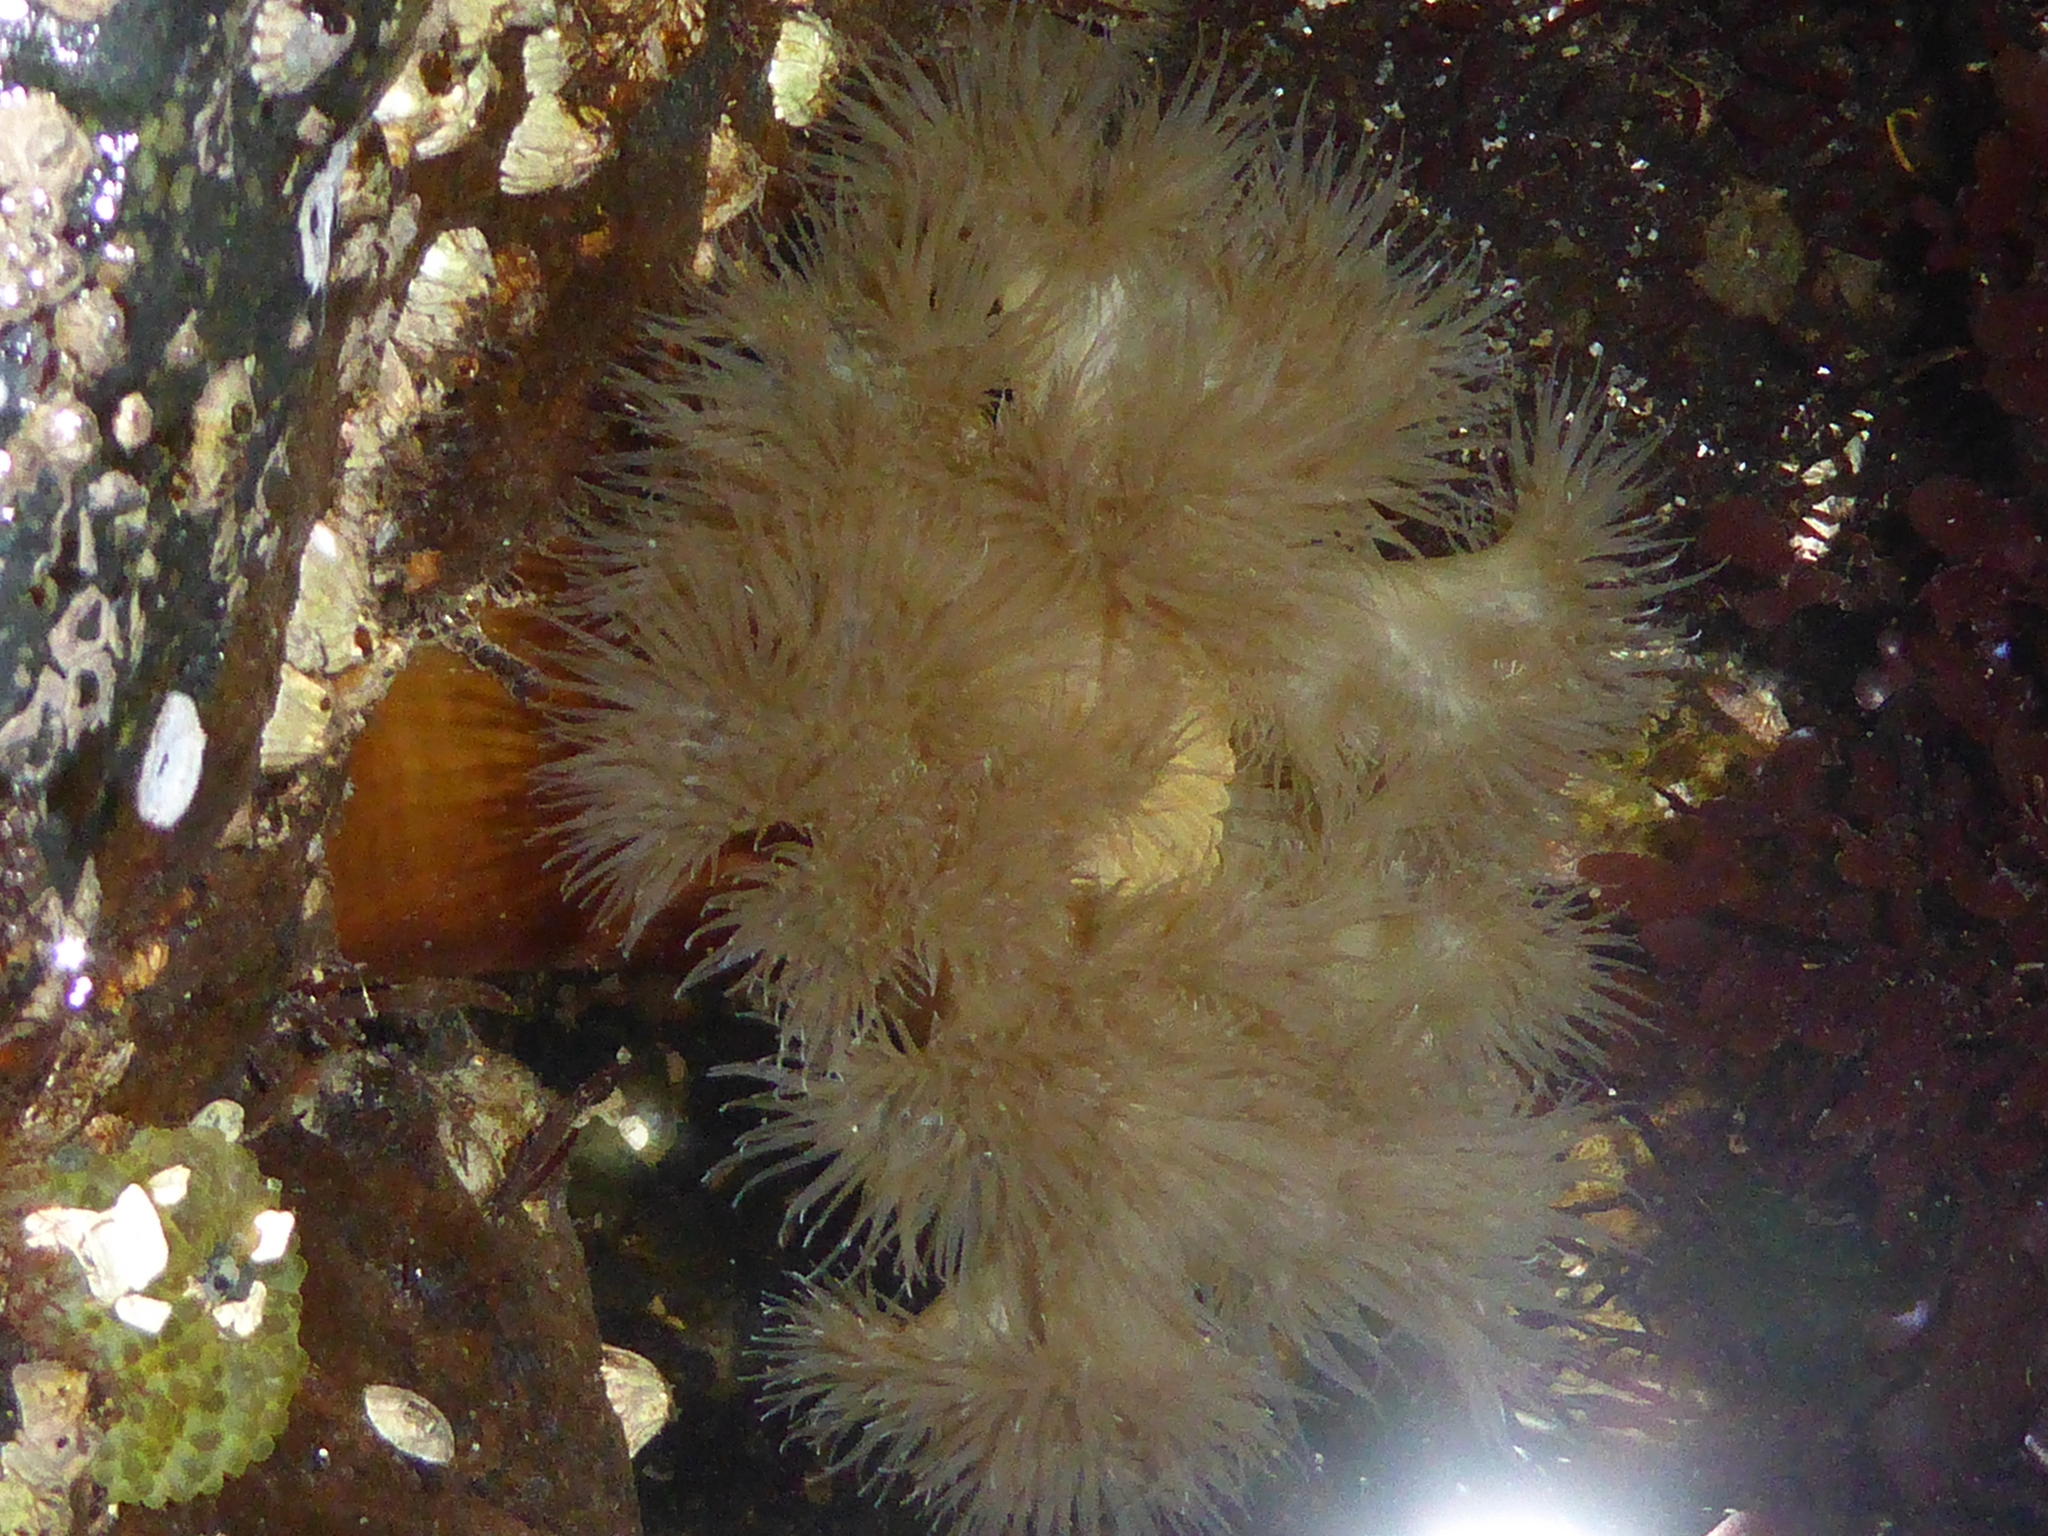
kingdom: Animalia
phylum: Cnidaria
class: Anthozoa
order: Actiniaria
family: Metridiidae
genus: Metridium
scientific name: Metridium senile
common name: Clonal plumose anemone
